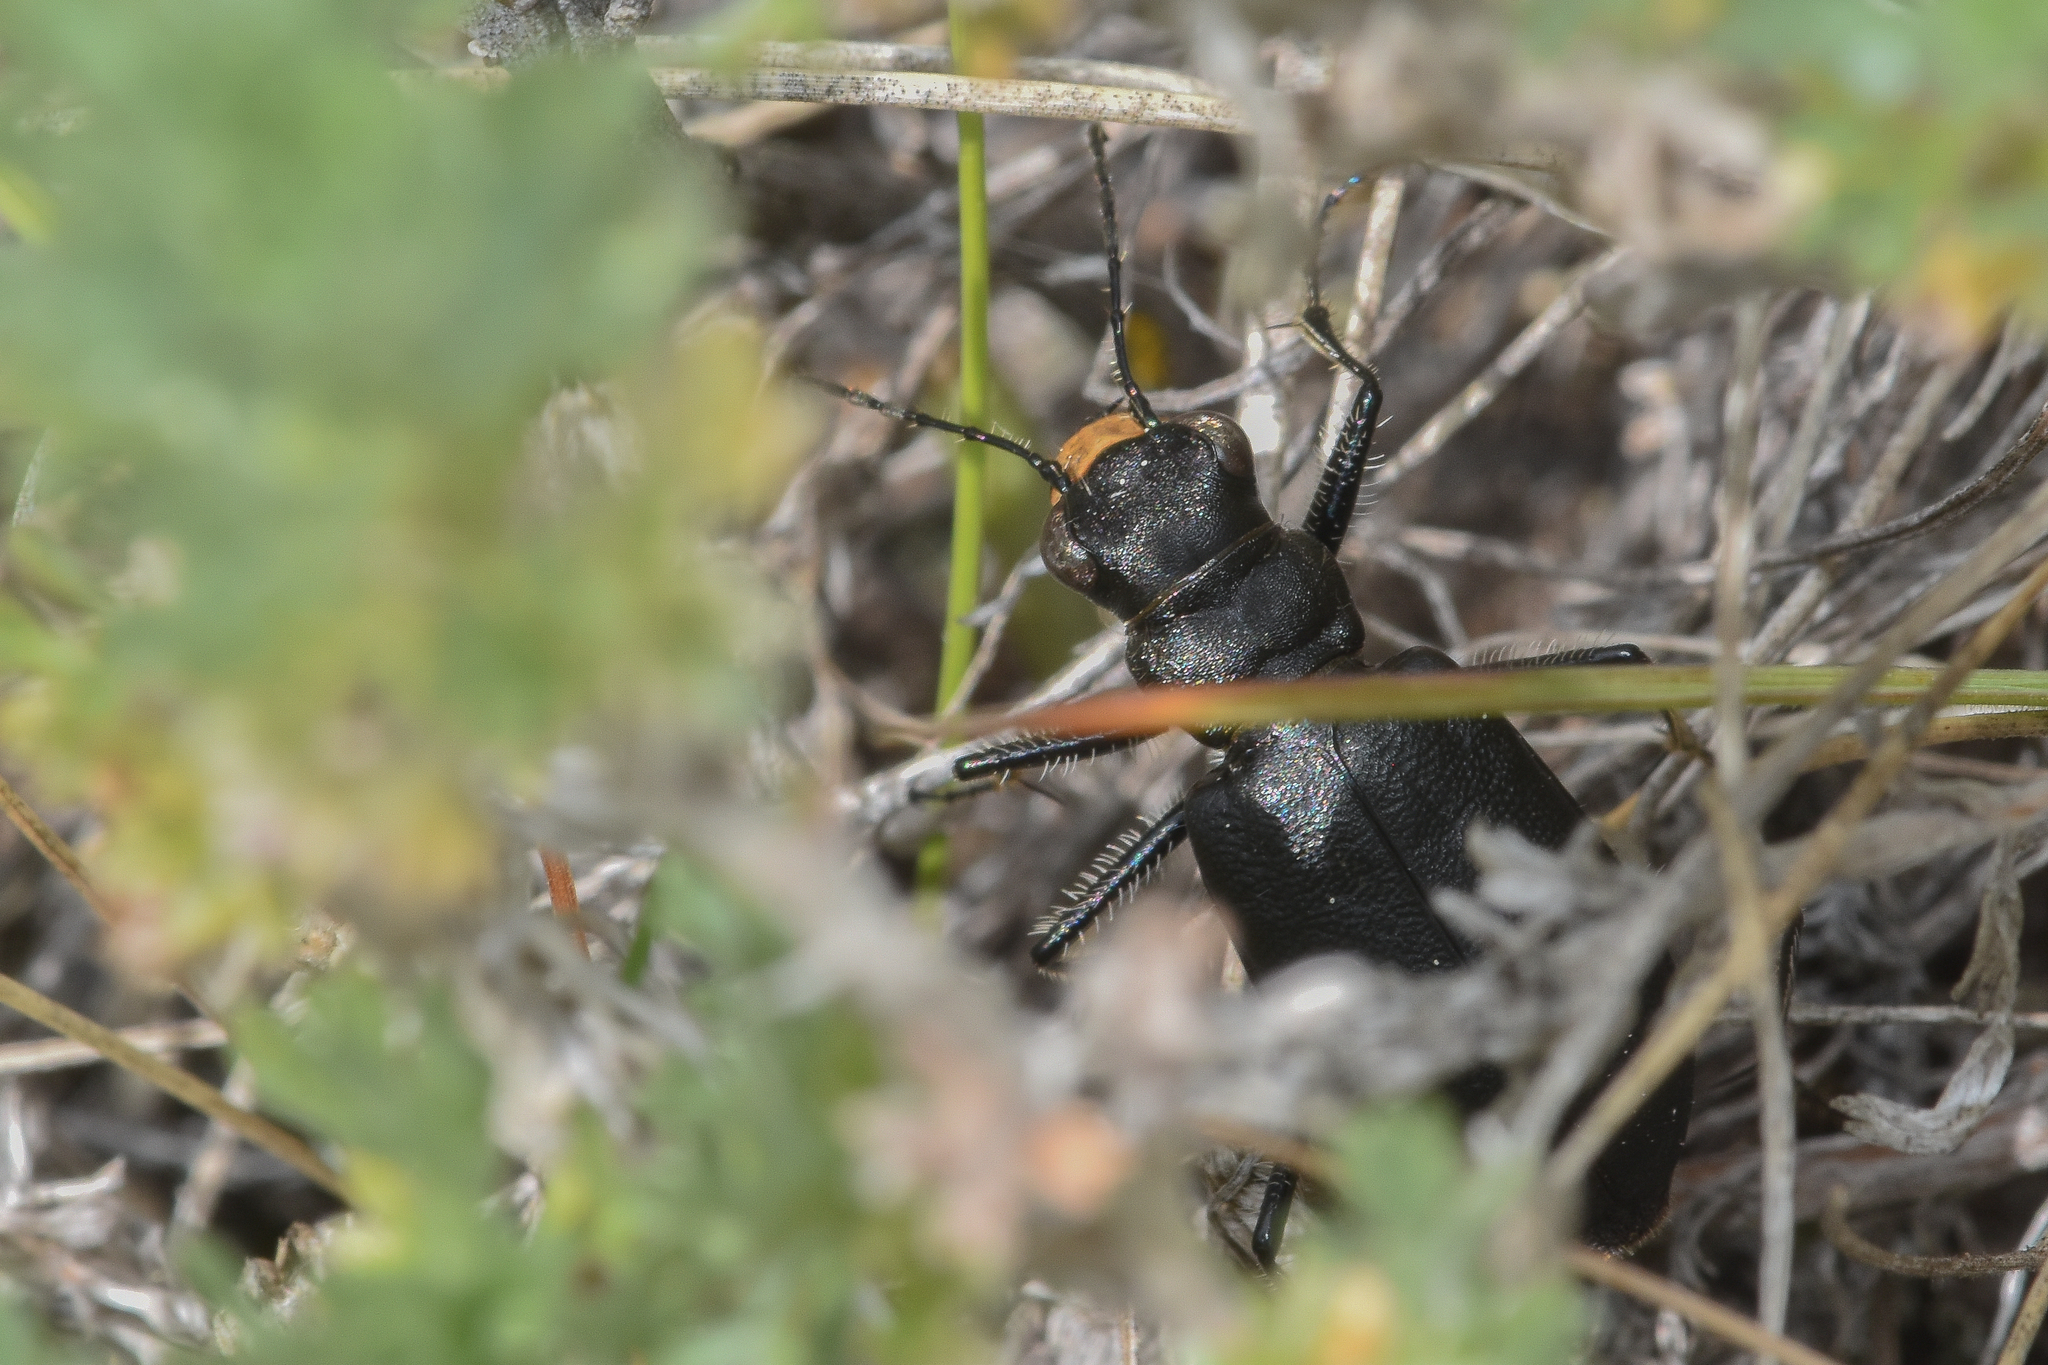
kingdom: Animalia
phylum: Arthropoda
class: Insecta
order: Coleoptera
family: Carabidae
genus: Cicindela
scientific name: Cicindela longilabris
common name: Boreal long-lipped tiger beetle
